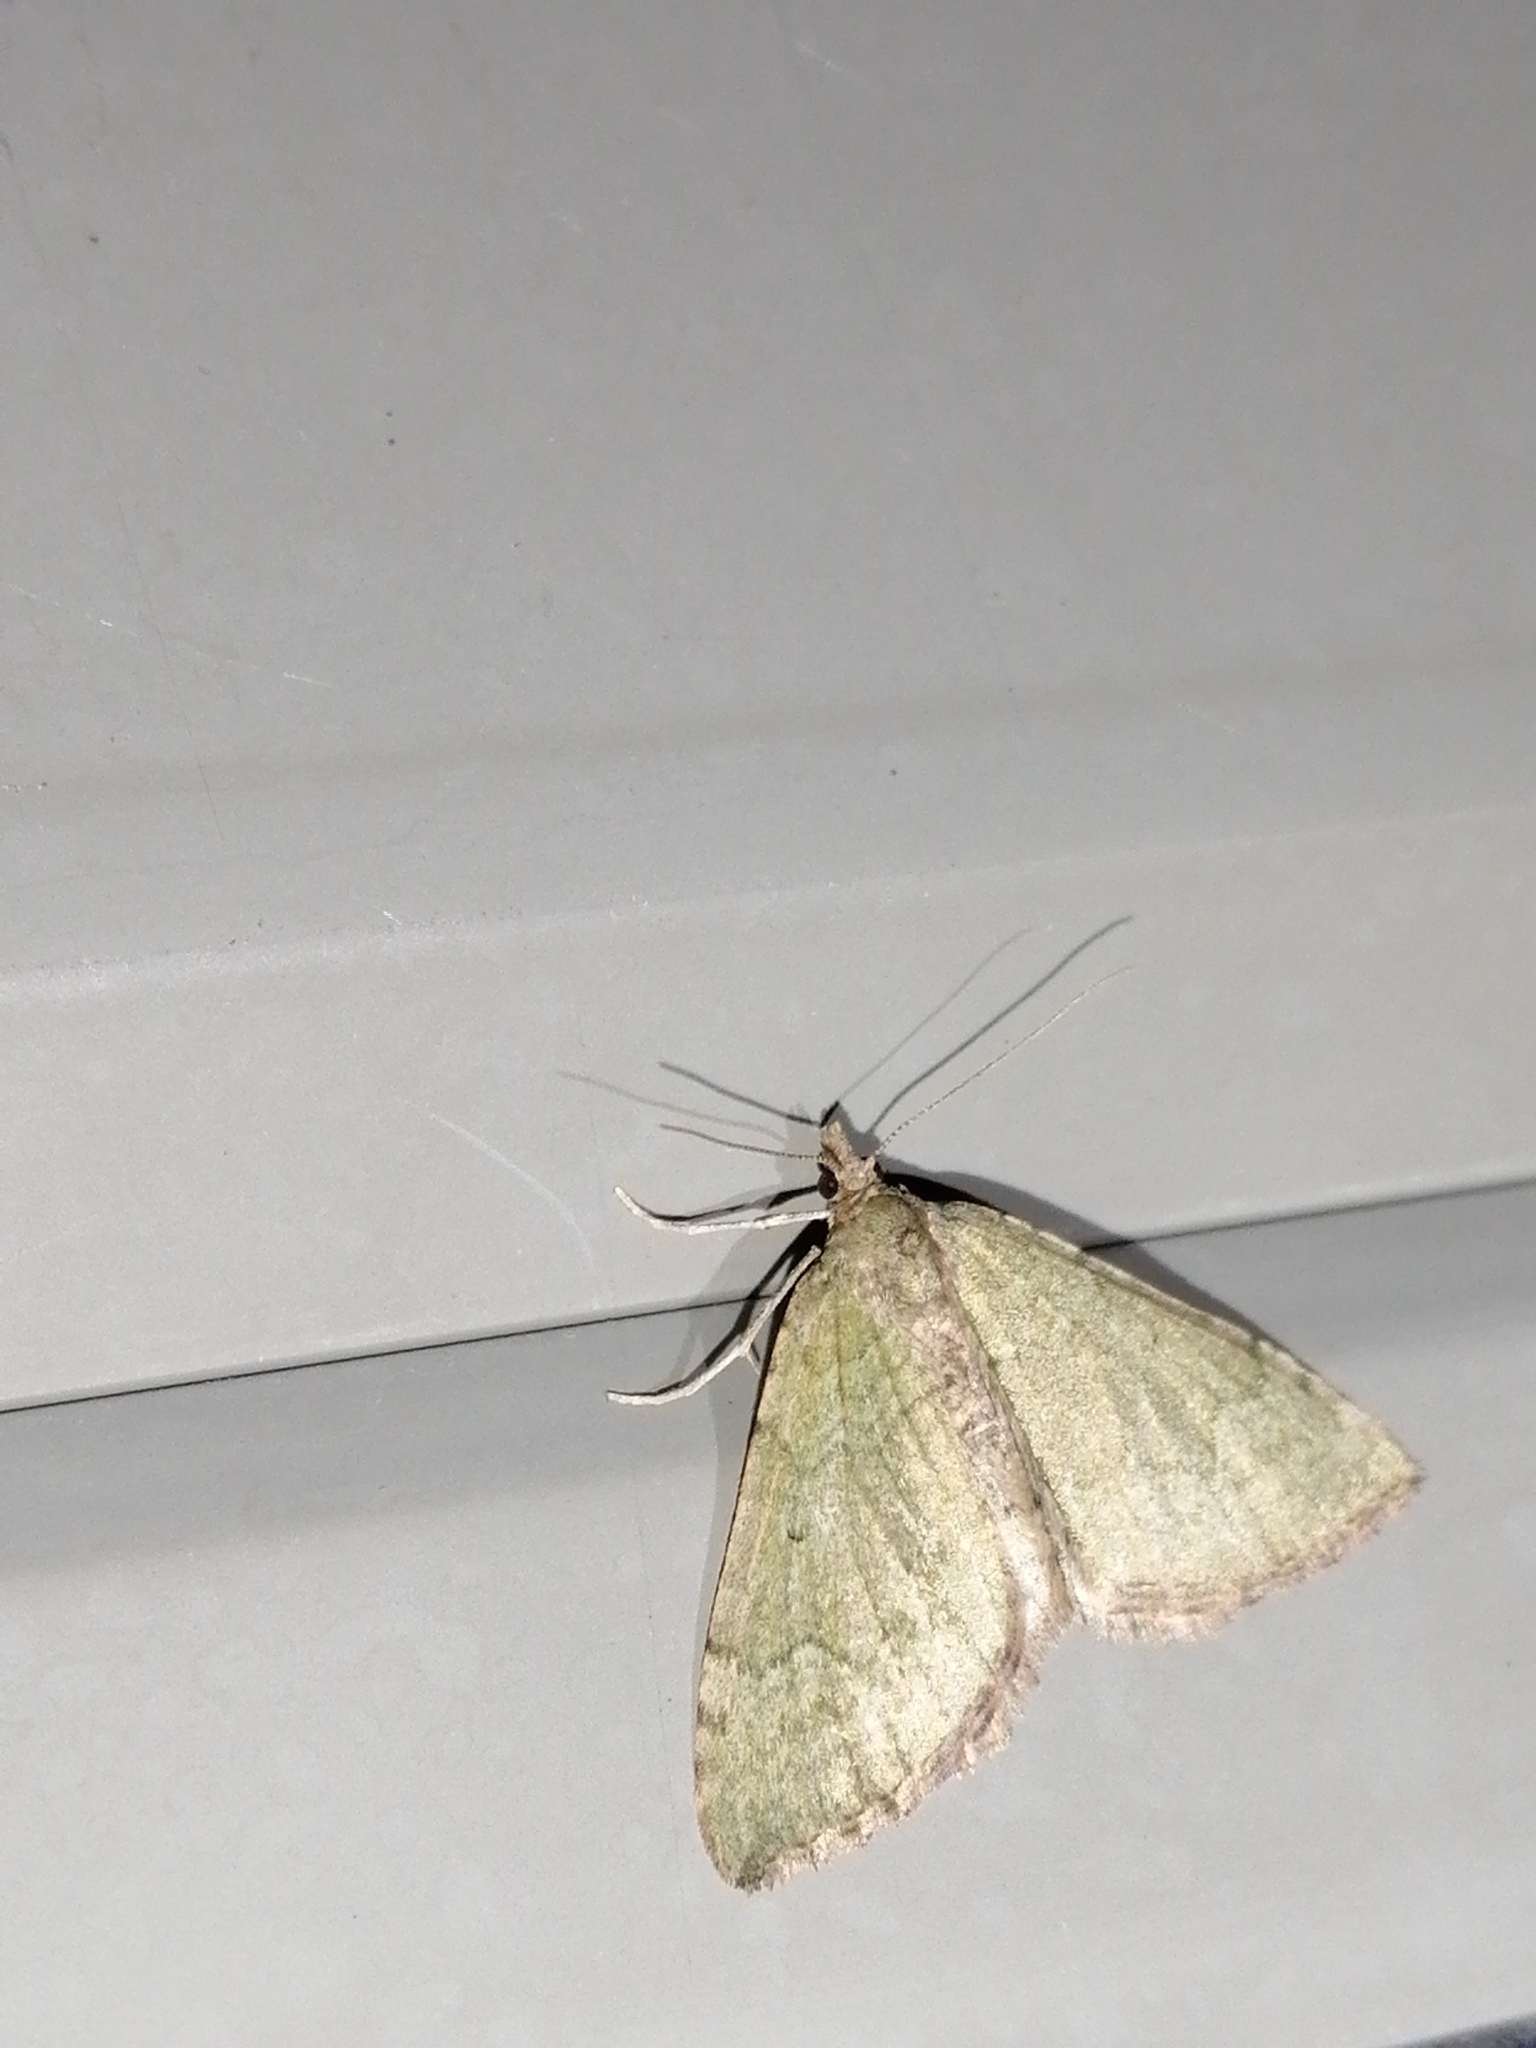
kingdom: Animalia
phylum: Arthropoda
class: Insecta
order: Lepidoptera
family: Geometridae
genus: Epyaxa
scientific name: Epyaxa rosearia
